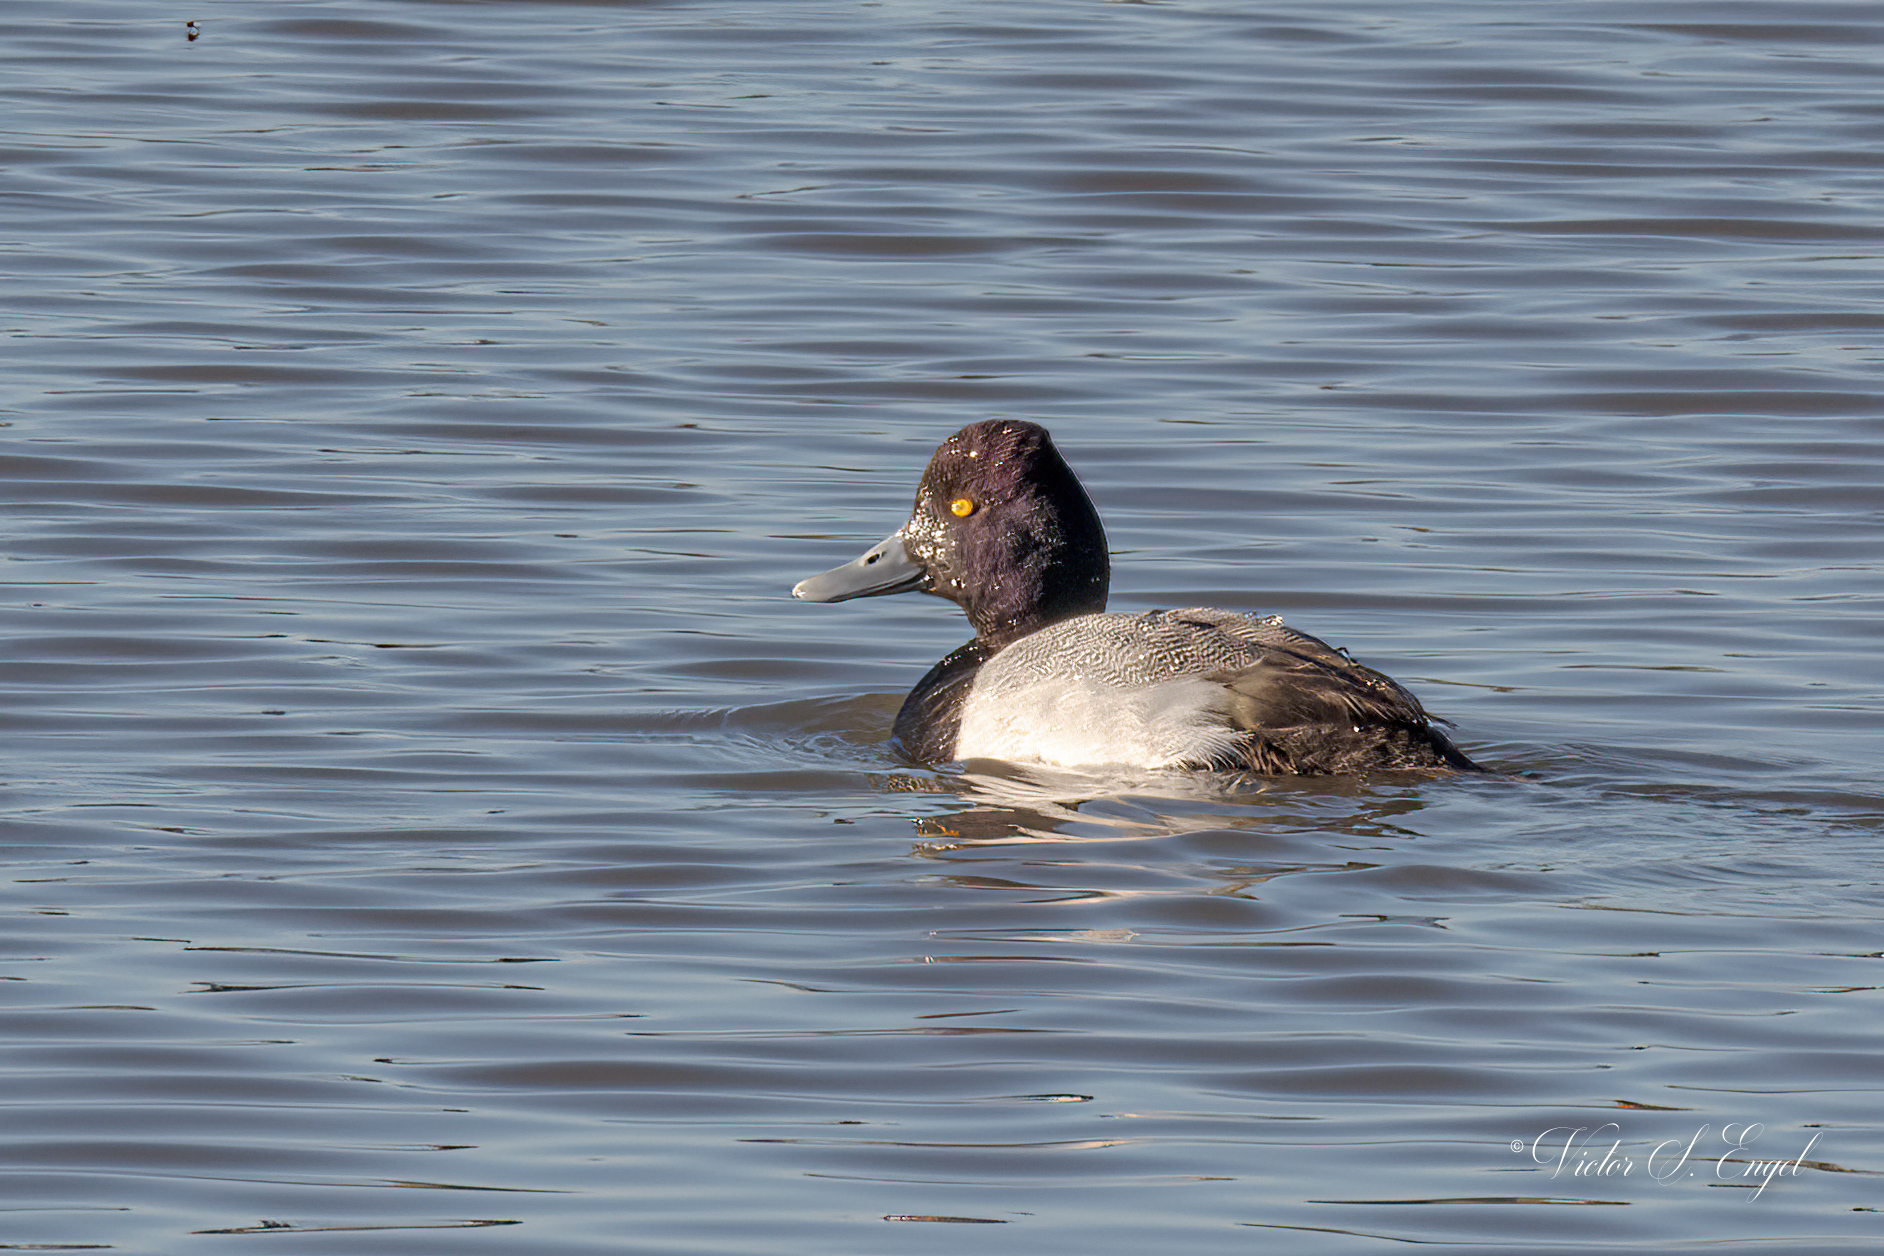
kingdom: Animalia
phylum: Chordata
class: Aves
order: Anseriformes
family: Anatidae
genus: Aythya
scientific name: Aythya affinis
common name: Lesser scaup
